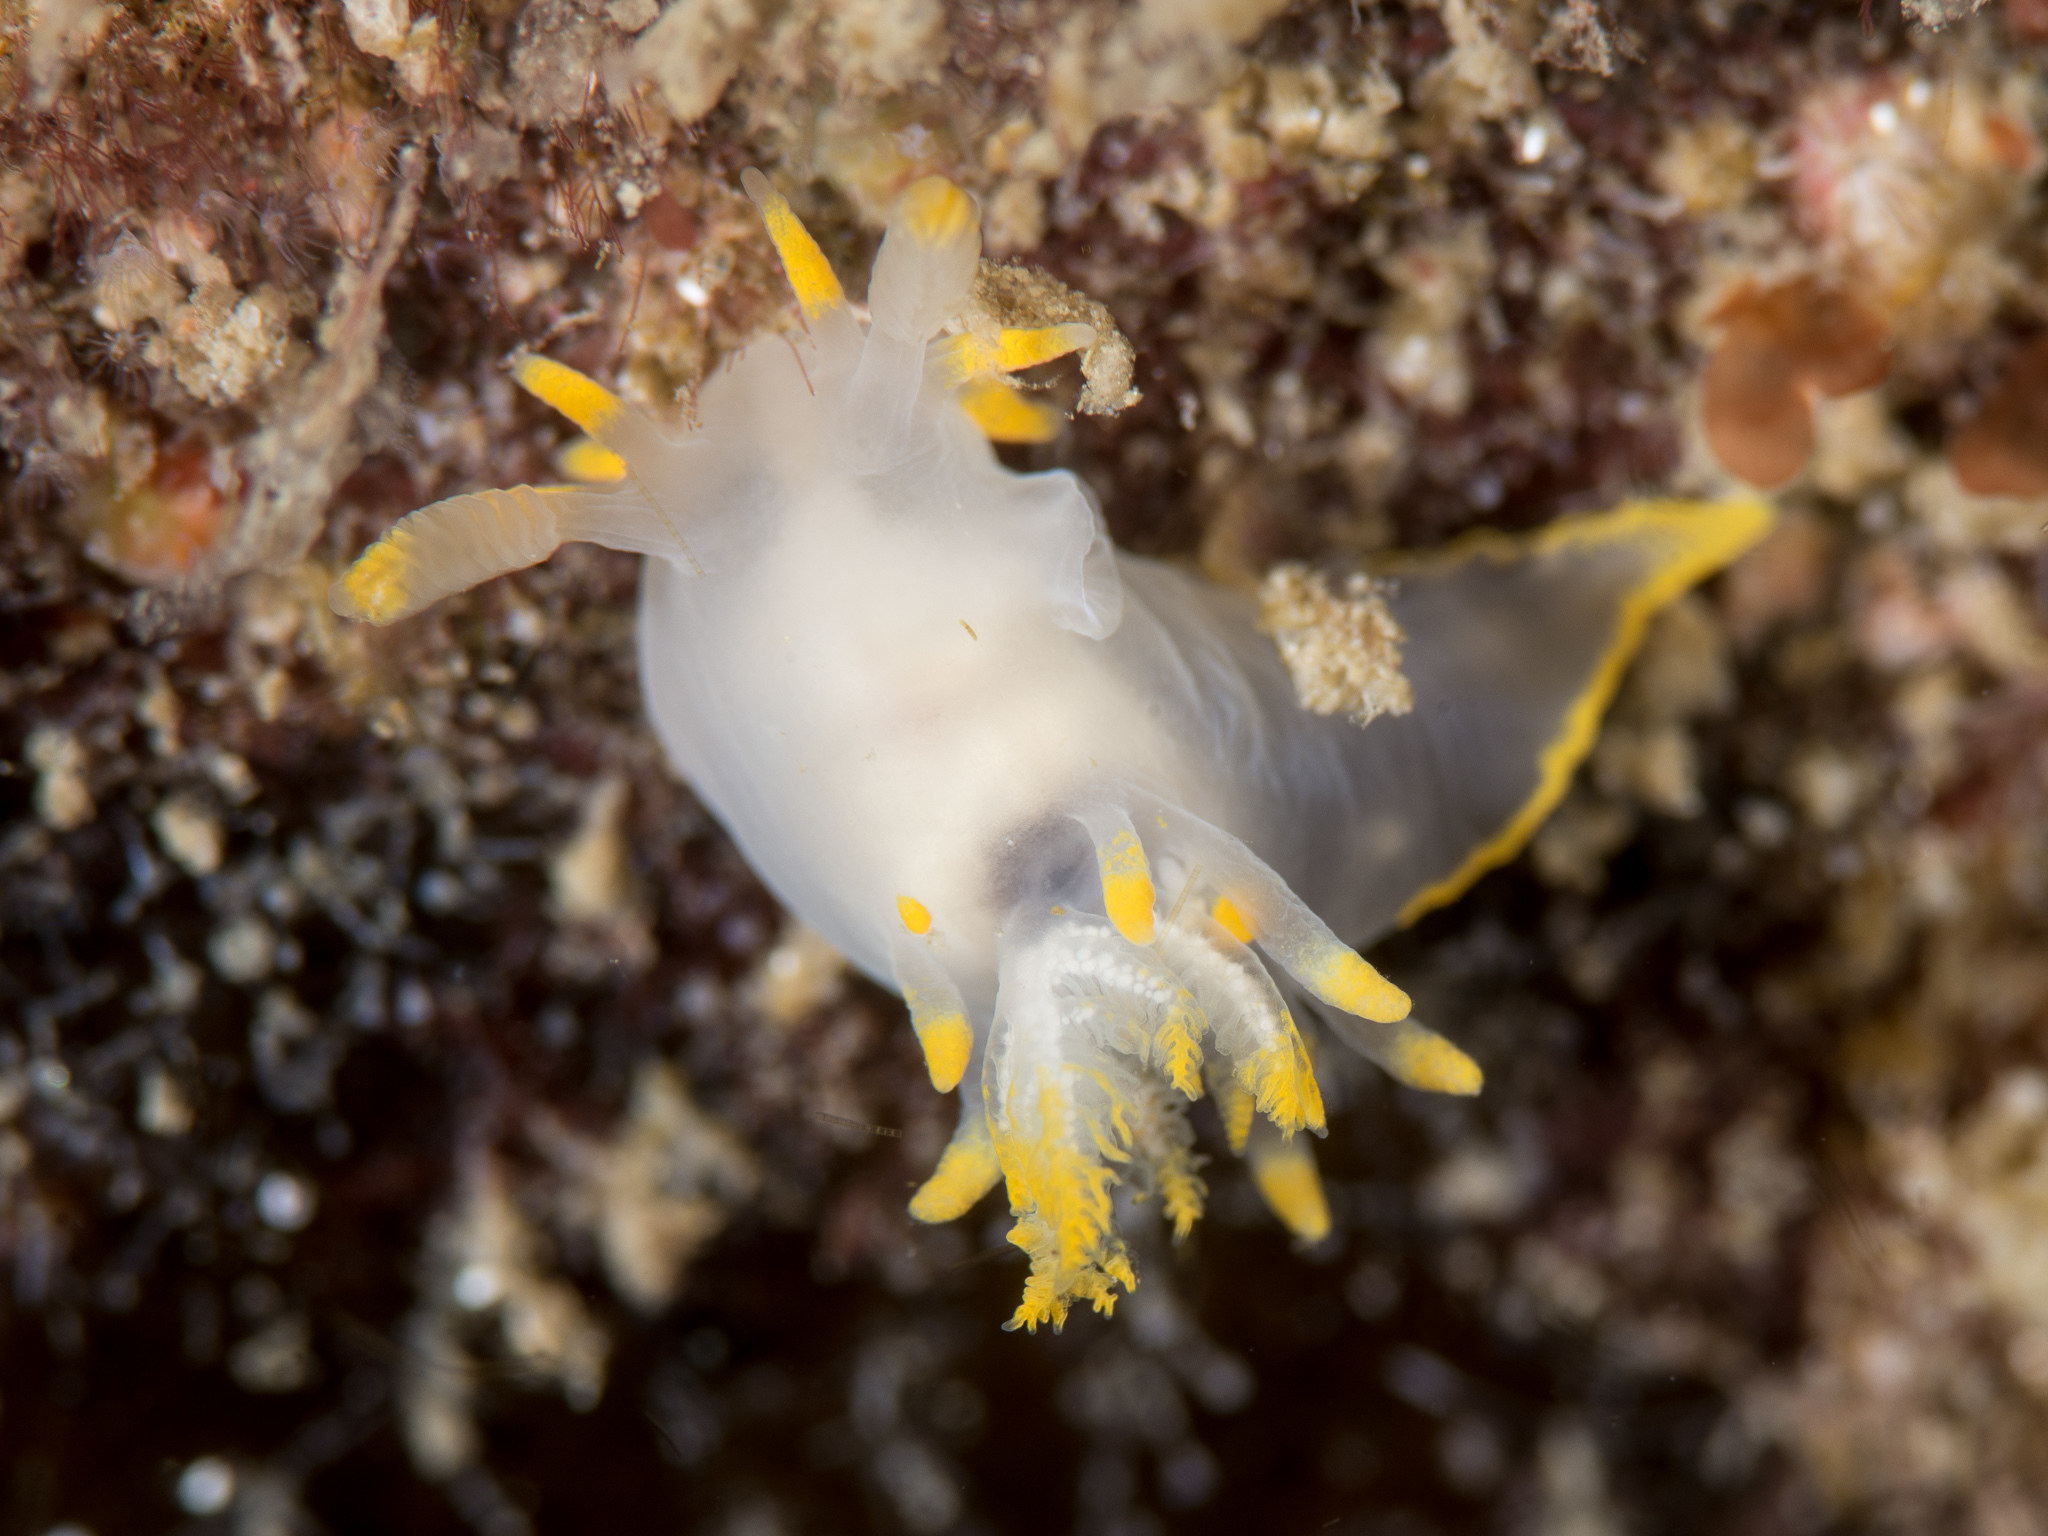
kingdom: Animalia
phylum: Mollusca
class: Gastropoda
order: Nudibranchia
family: Goniodorididae
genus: Ancula
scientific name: Ancula gibbosa
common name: Atlantic ancula
